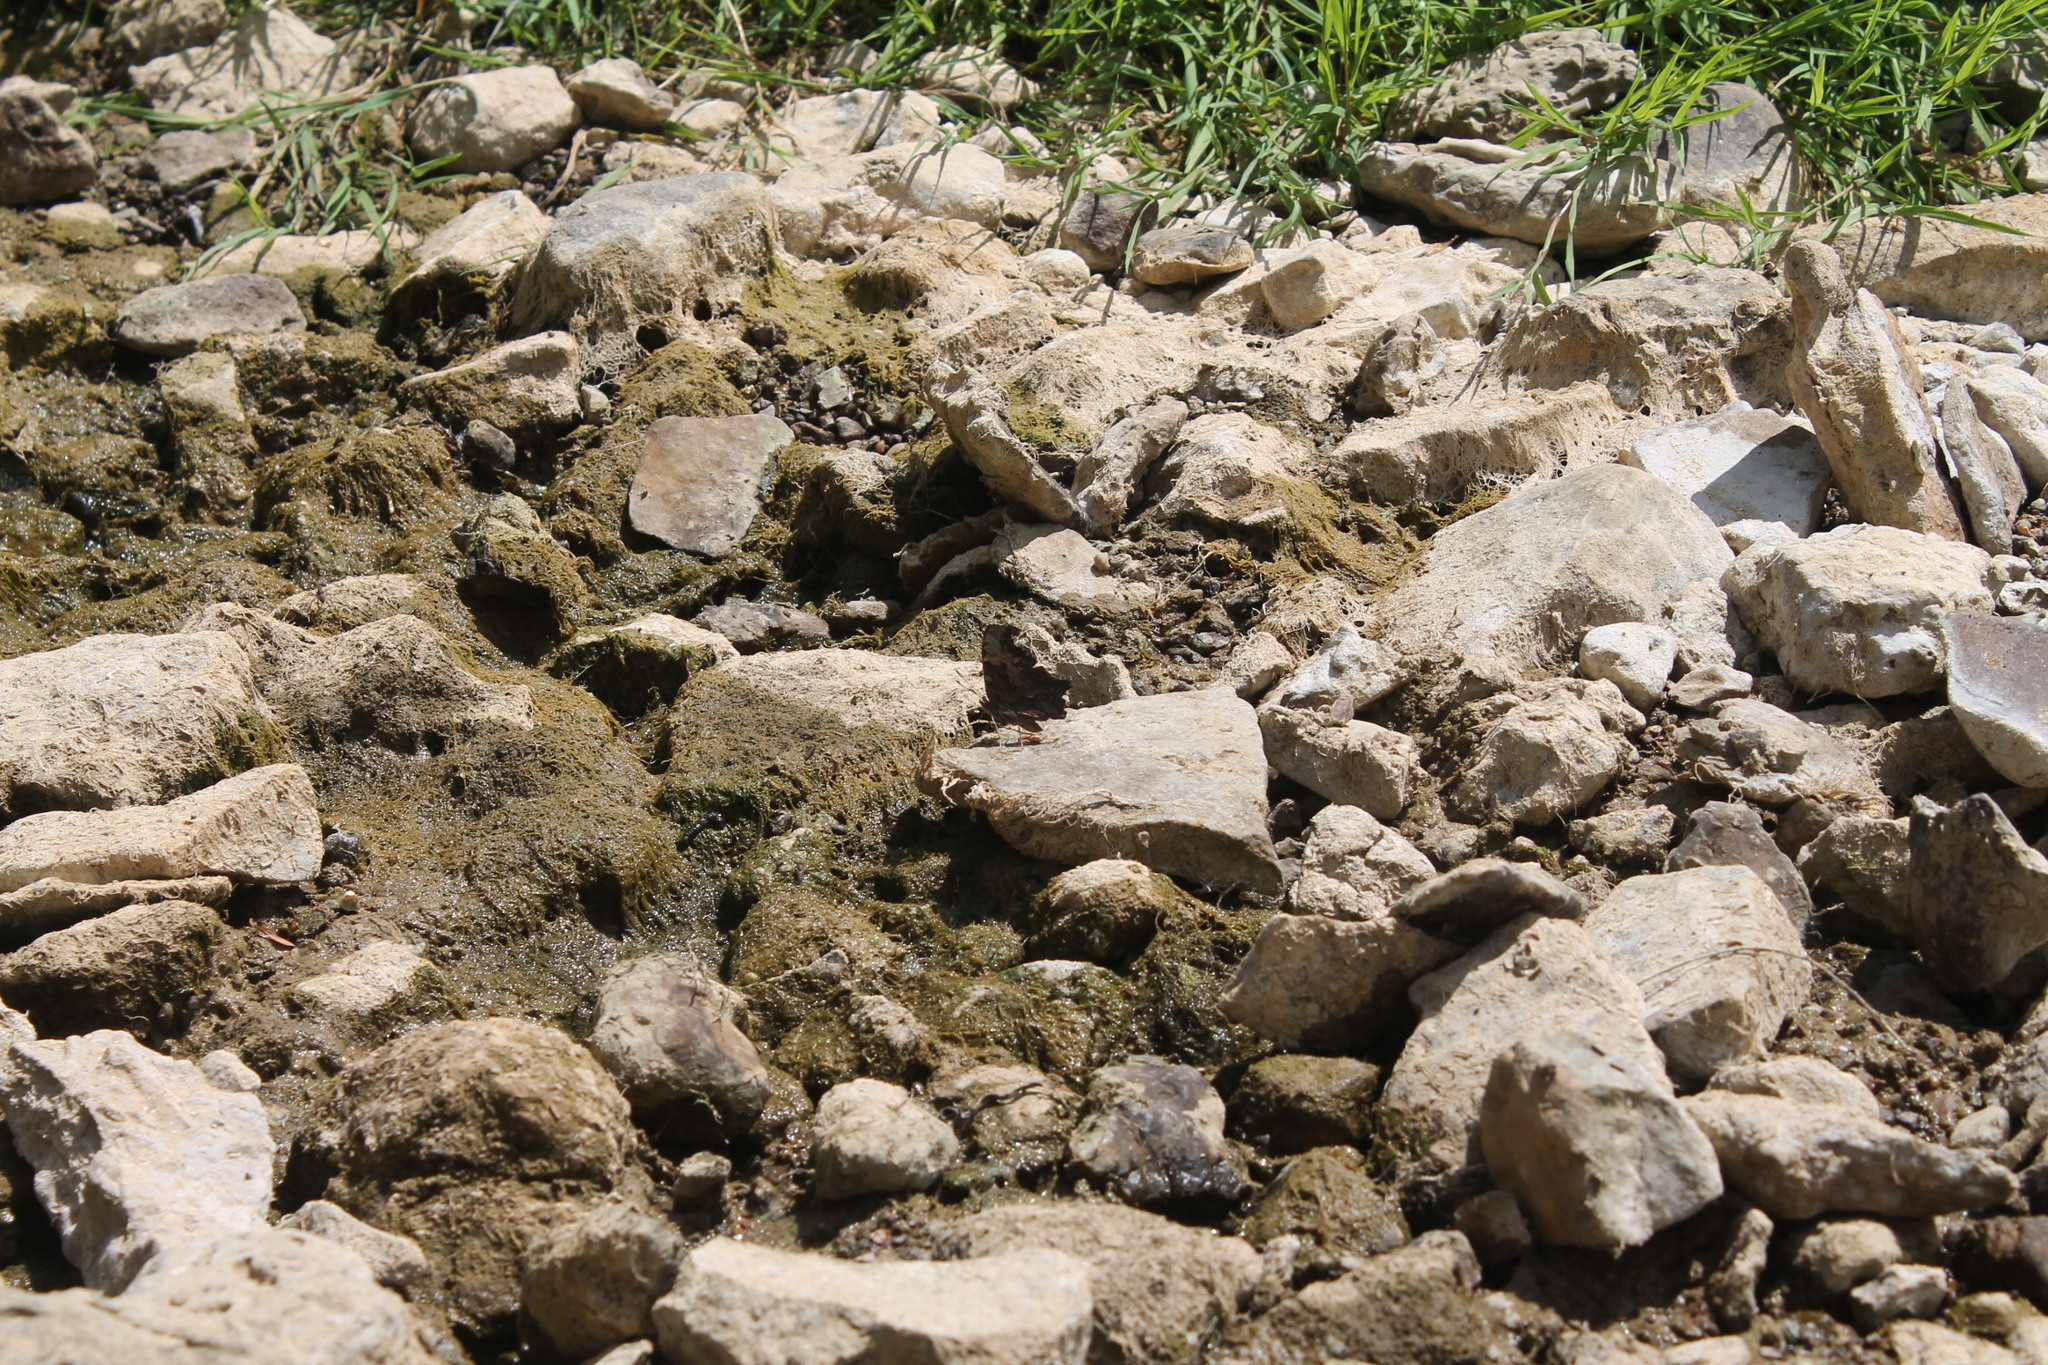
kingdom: Animalia
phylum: Arthropoda
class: Insecta
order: Lepidoptera
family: Nymphalidae
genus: Polygonia
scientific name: Polygonia comma
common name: Eastern comma
